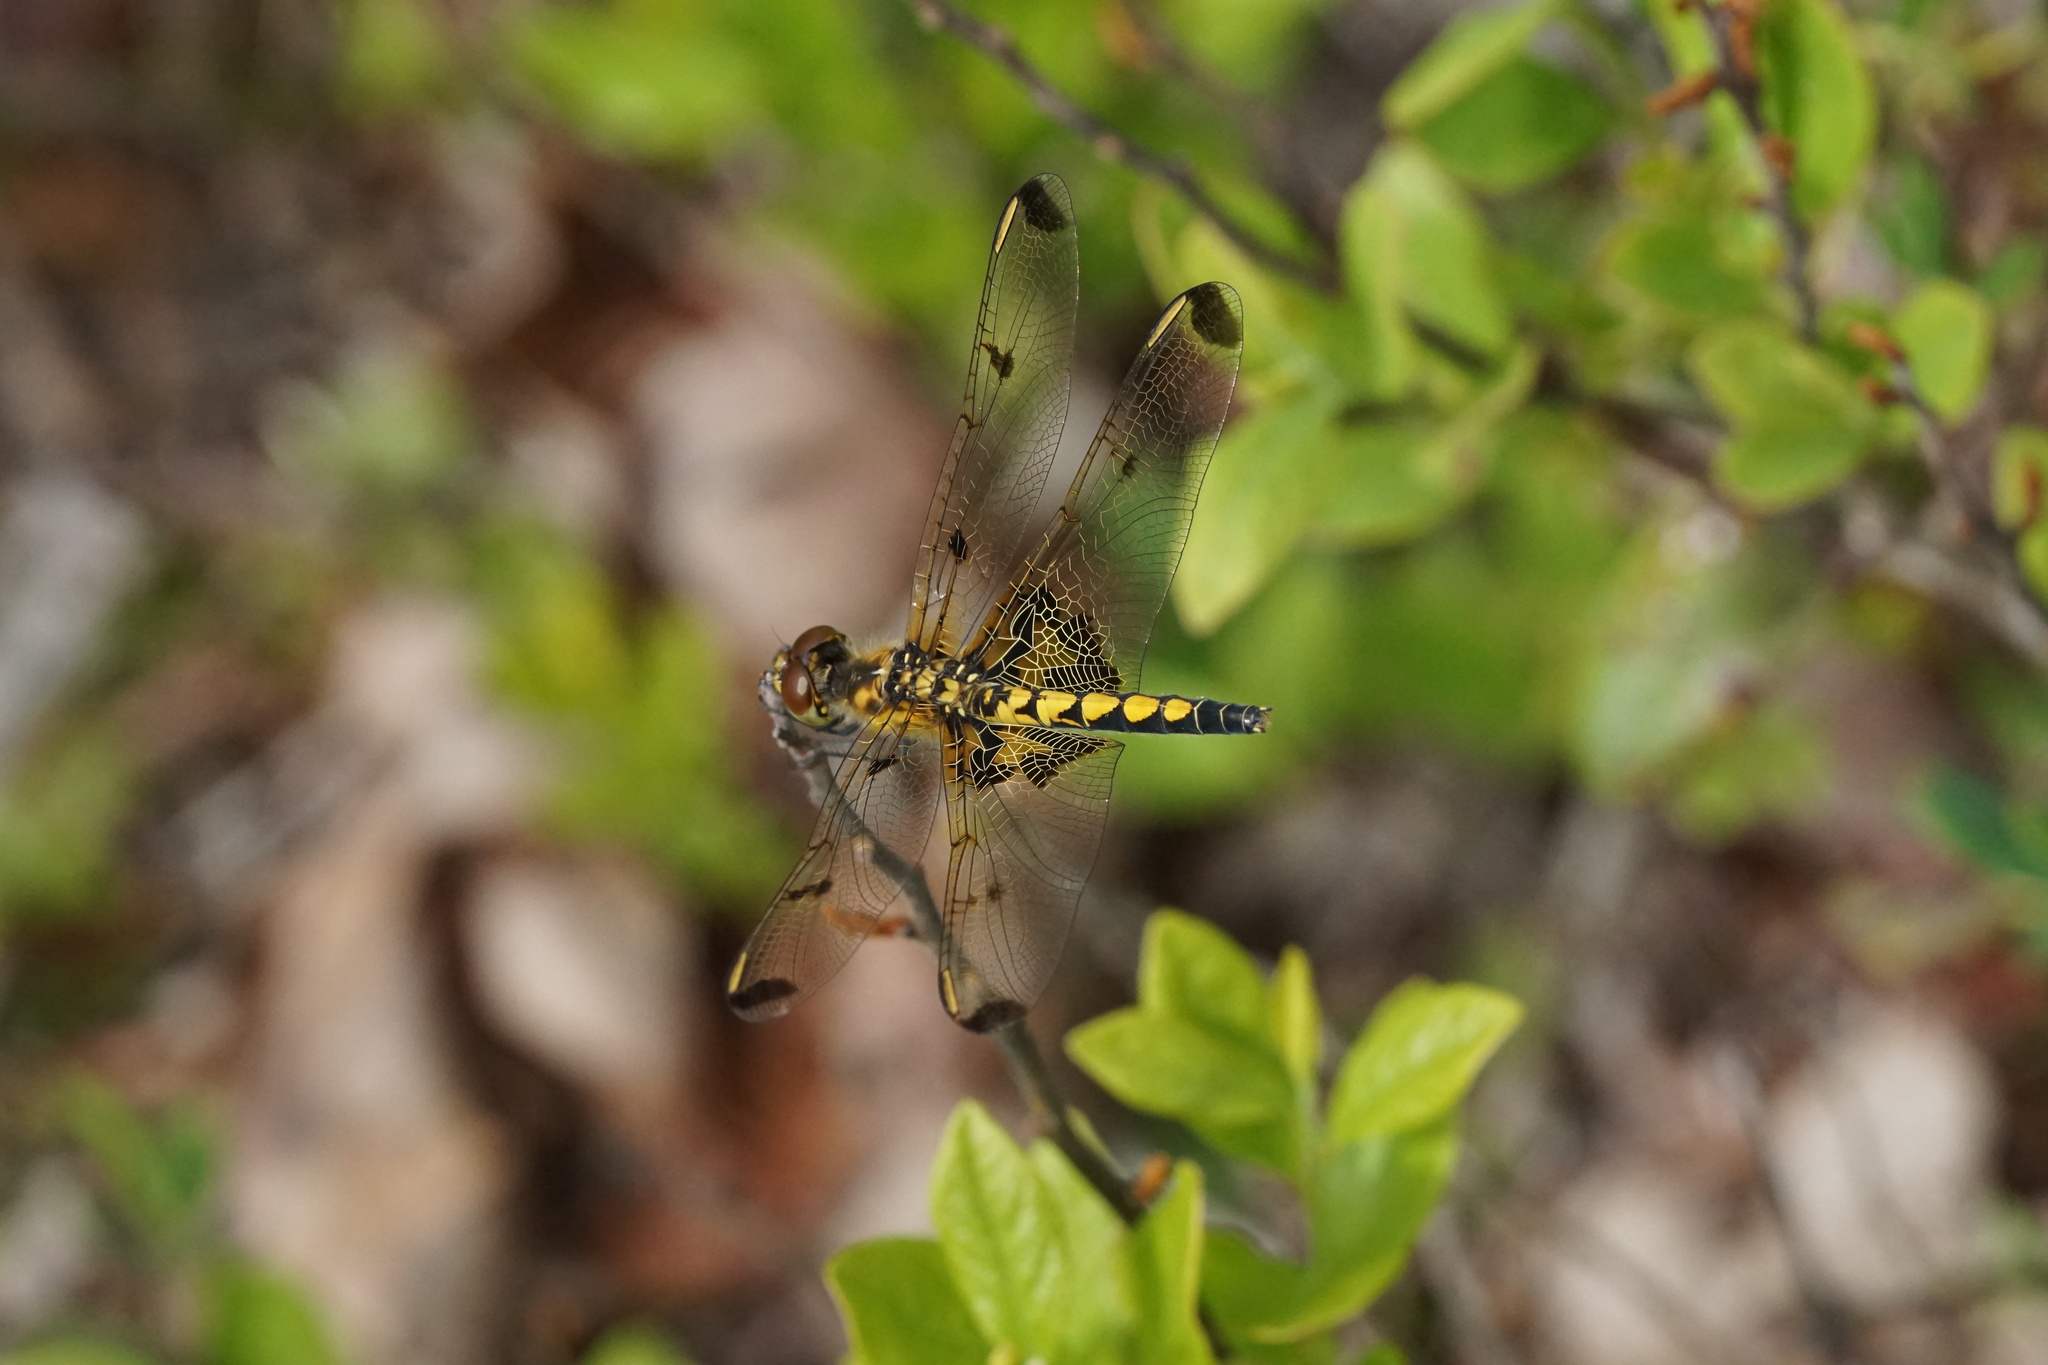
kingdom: Animalia
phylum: Arthropoda
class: Insecta
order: Odonata
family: Libellulidae
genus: Celithemis
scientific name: Celithemis elisa
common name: Calico pennant
